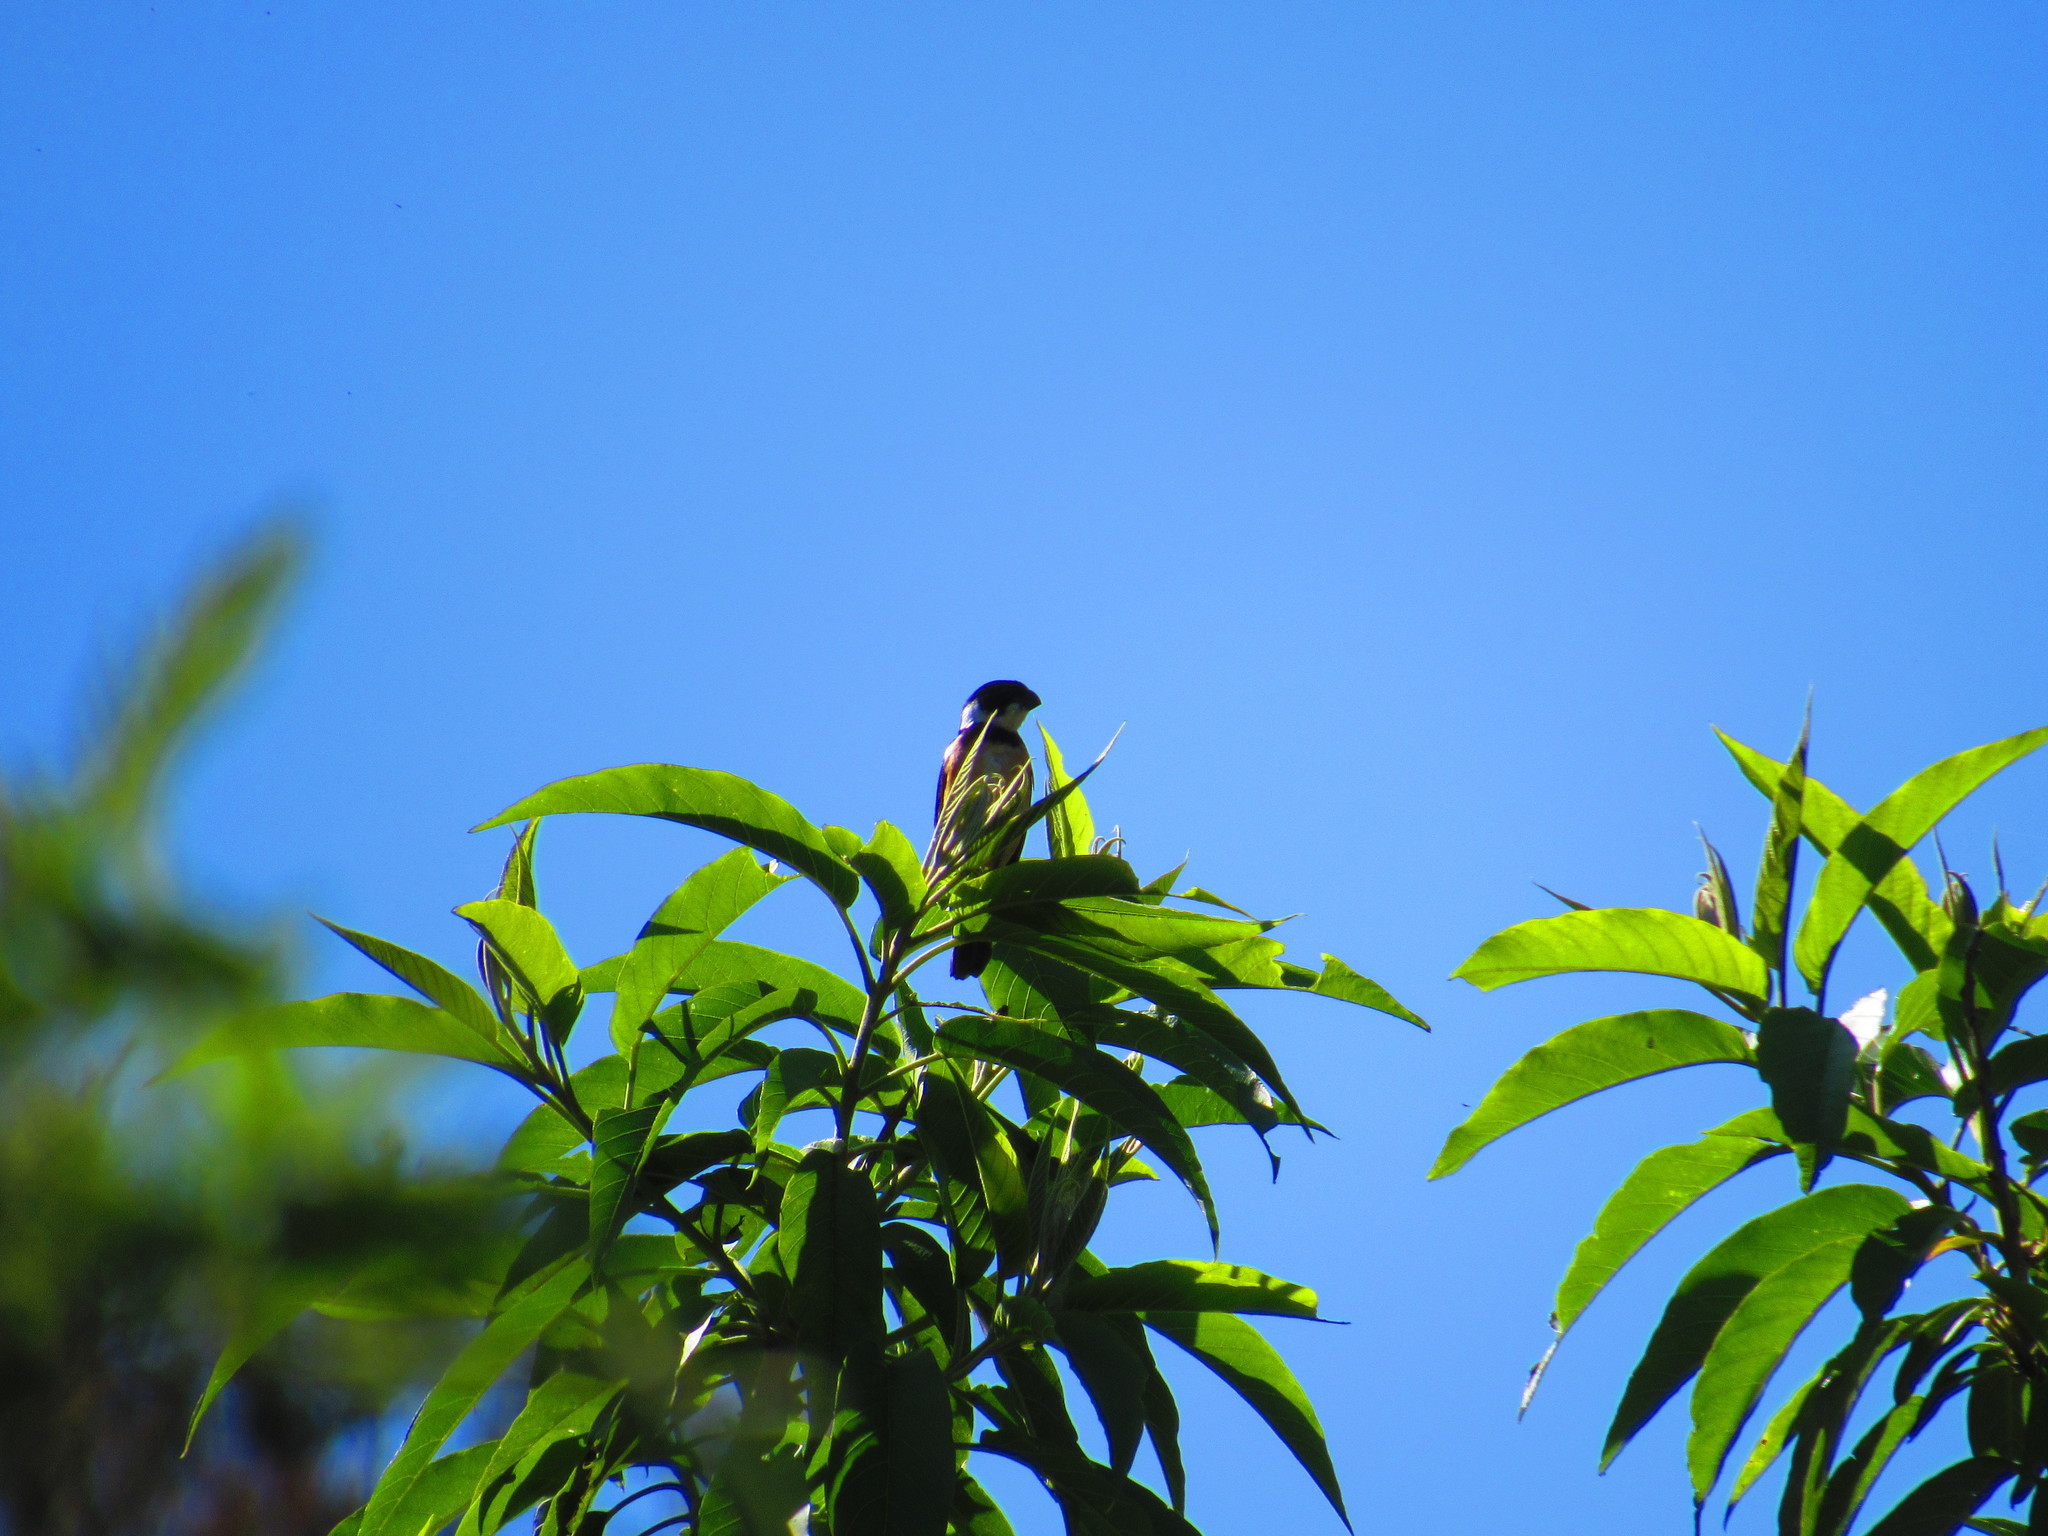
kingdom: Animalia
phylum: Chordata
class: Aves
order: Passeriformes
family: Thraupidae
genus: Sporophila
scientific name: Sporophila torqueola
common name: White-collared seedeater
